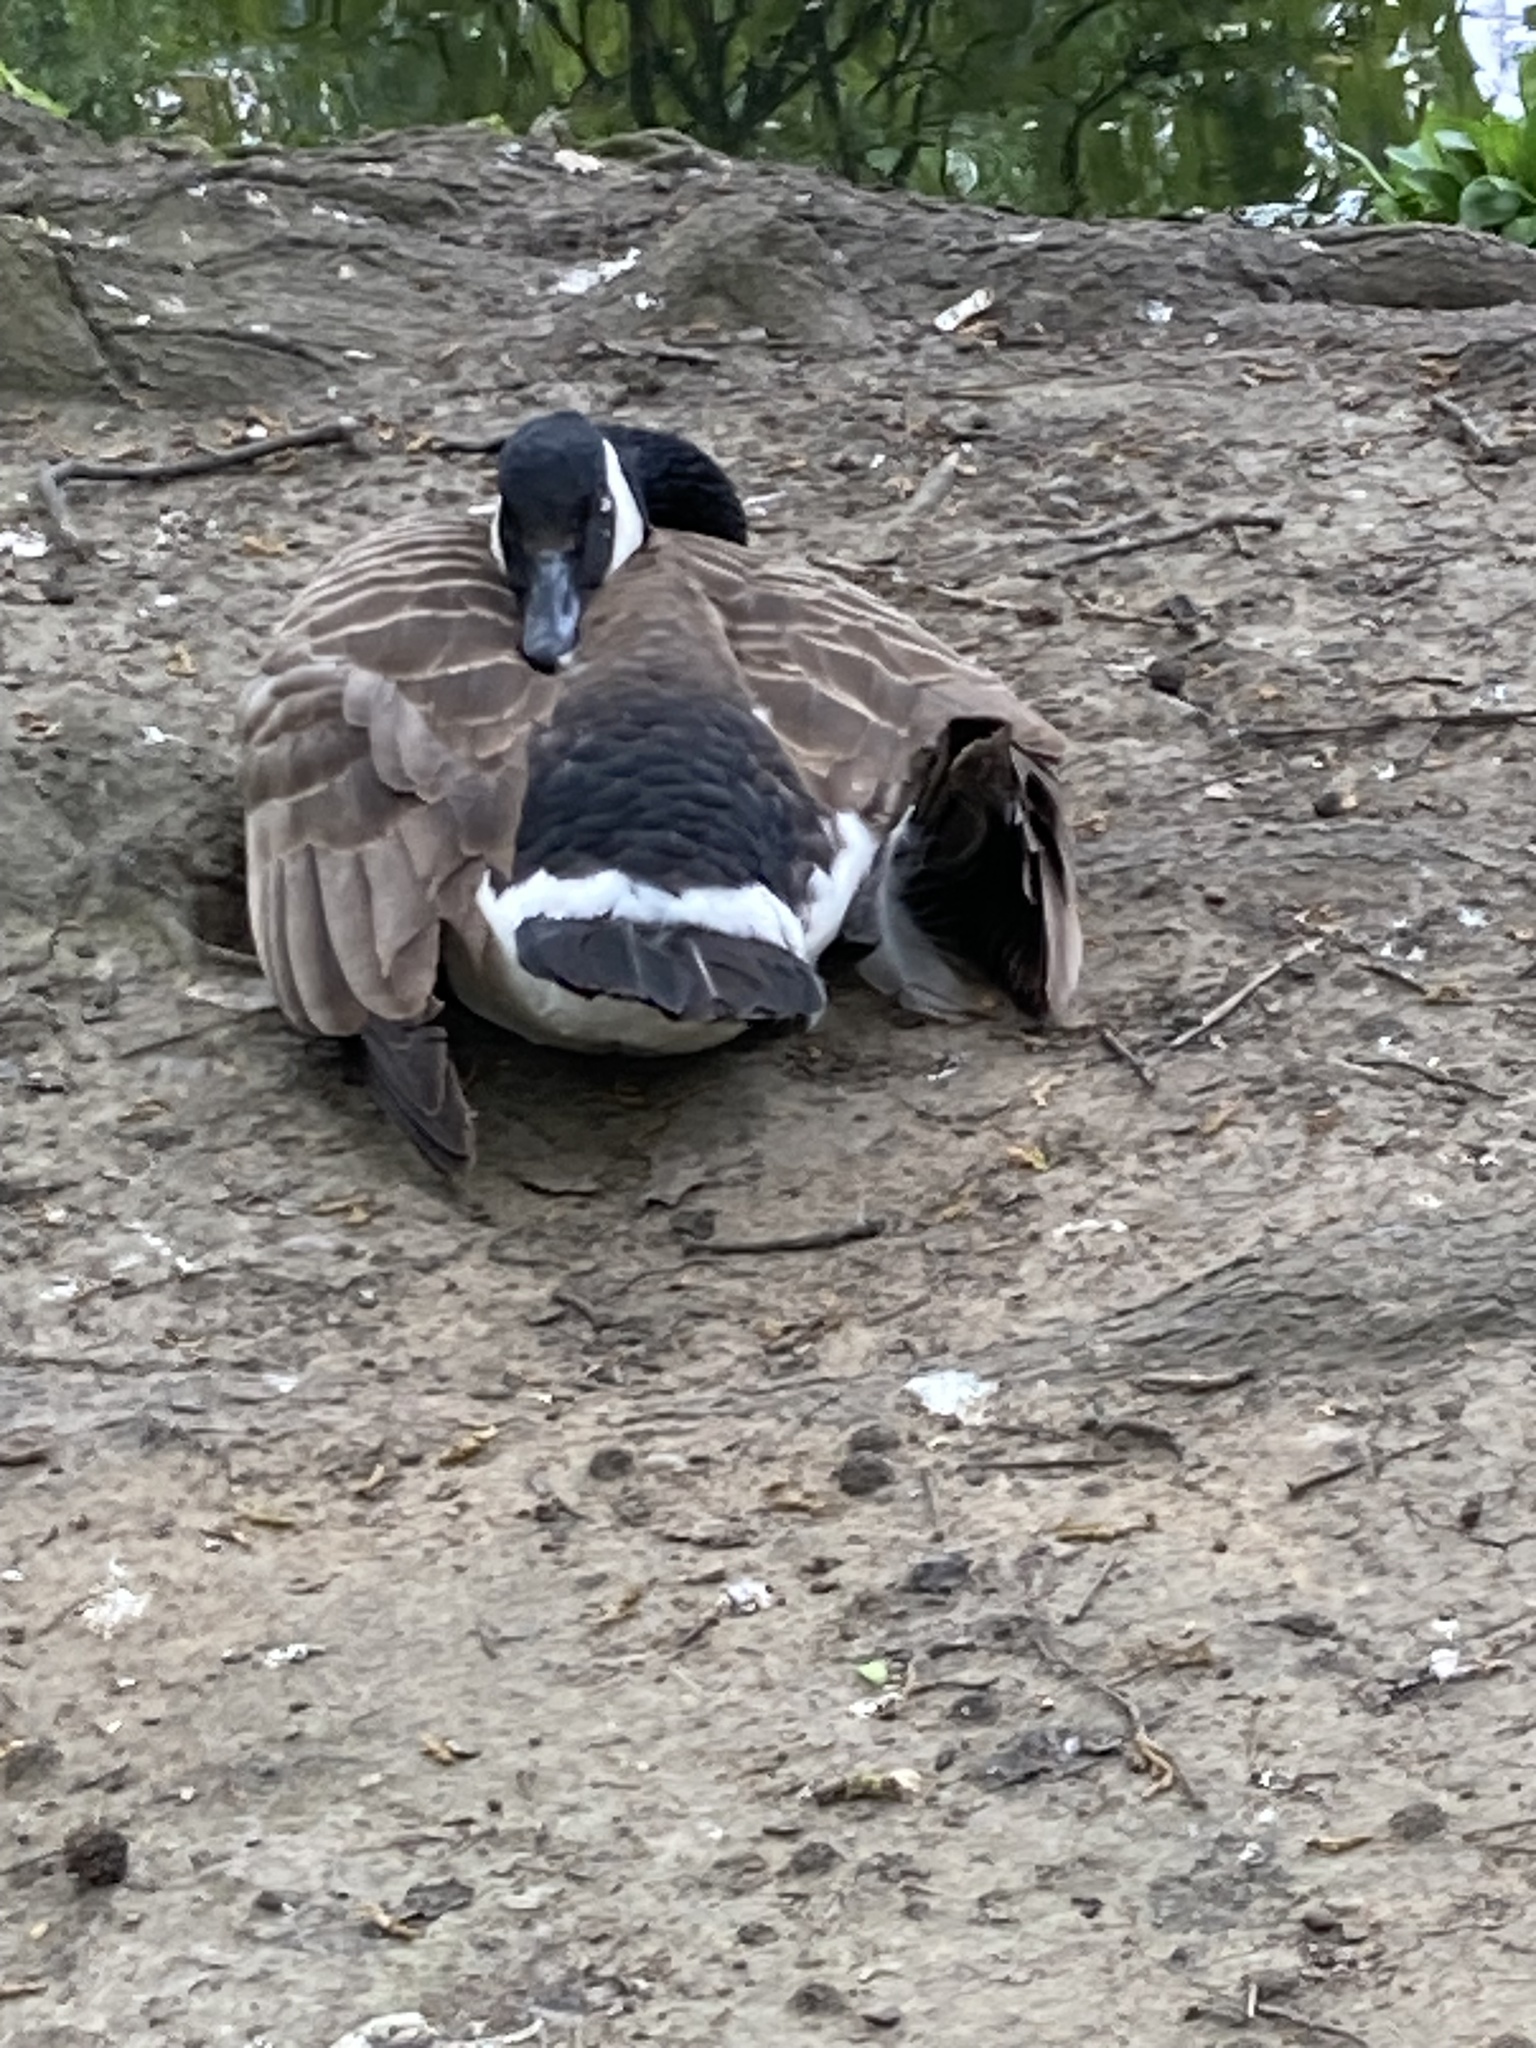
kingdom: Animalia
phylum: Chordata
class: Aves
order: Anseriformes
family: Anatidae
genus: Branta
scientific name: Branta canadensis
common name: Canada goose
